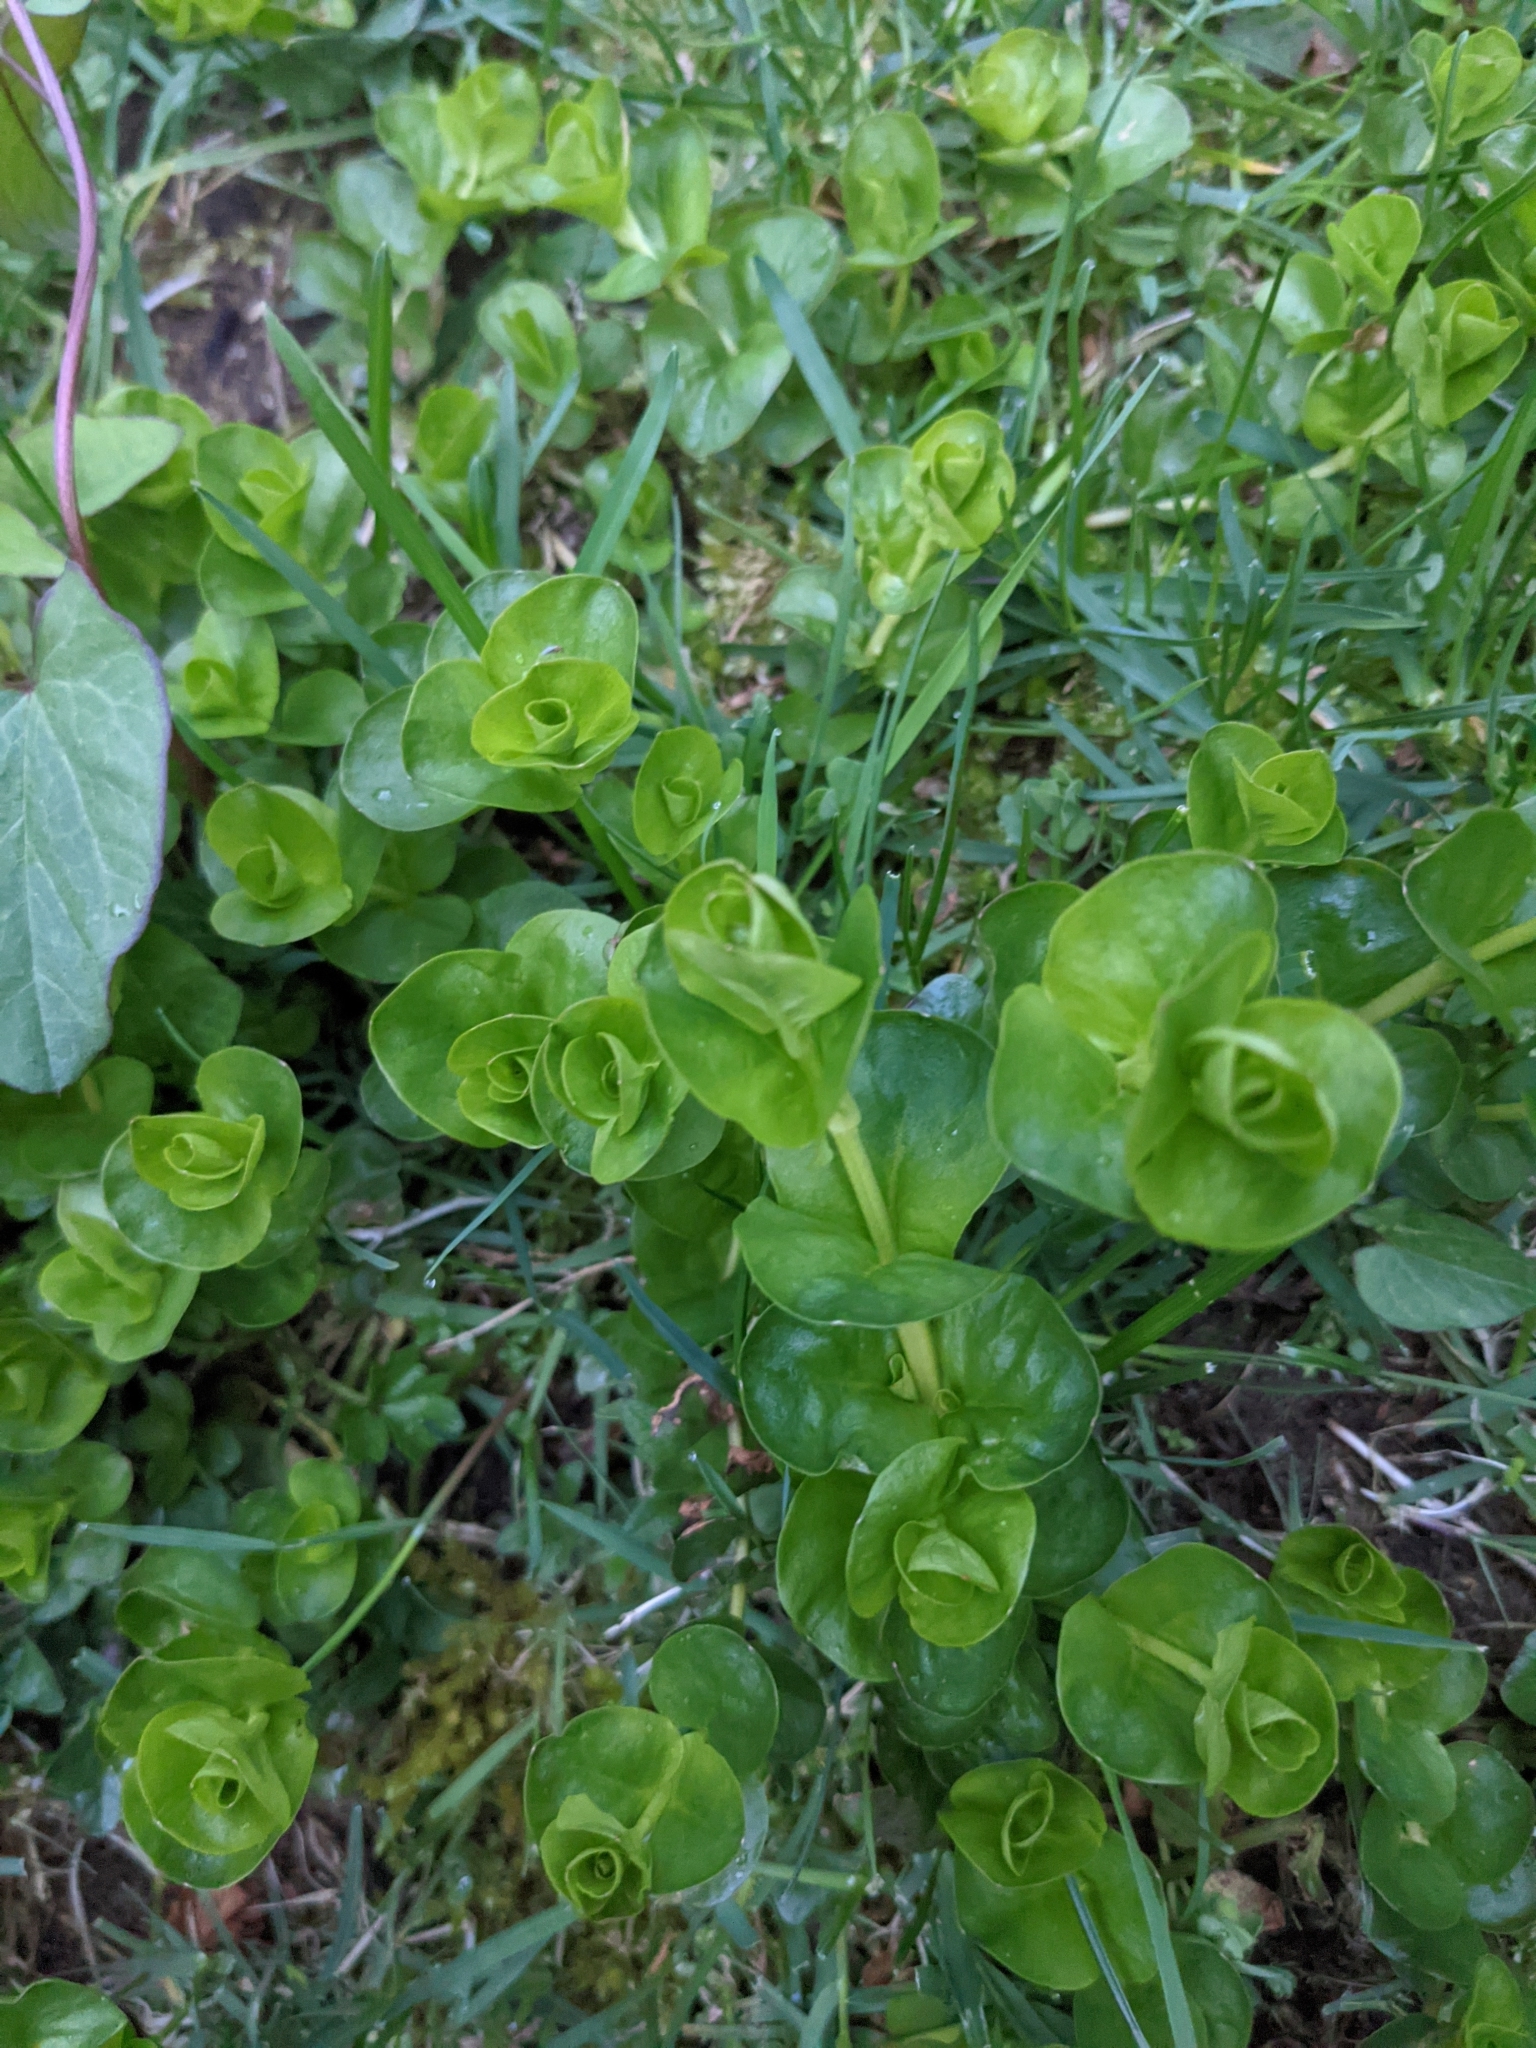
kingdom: Plantae
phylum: Tracheophyta
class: Magnoliopsida
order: Ericales
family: Primulaceae
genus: Lysimachia
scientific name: Lysimachia nummularia
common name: Moneywort
